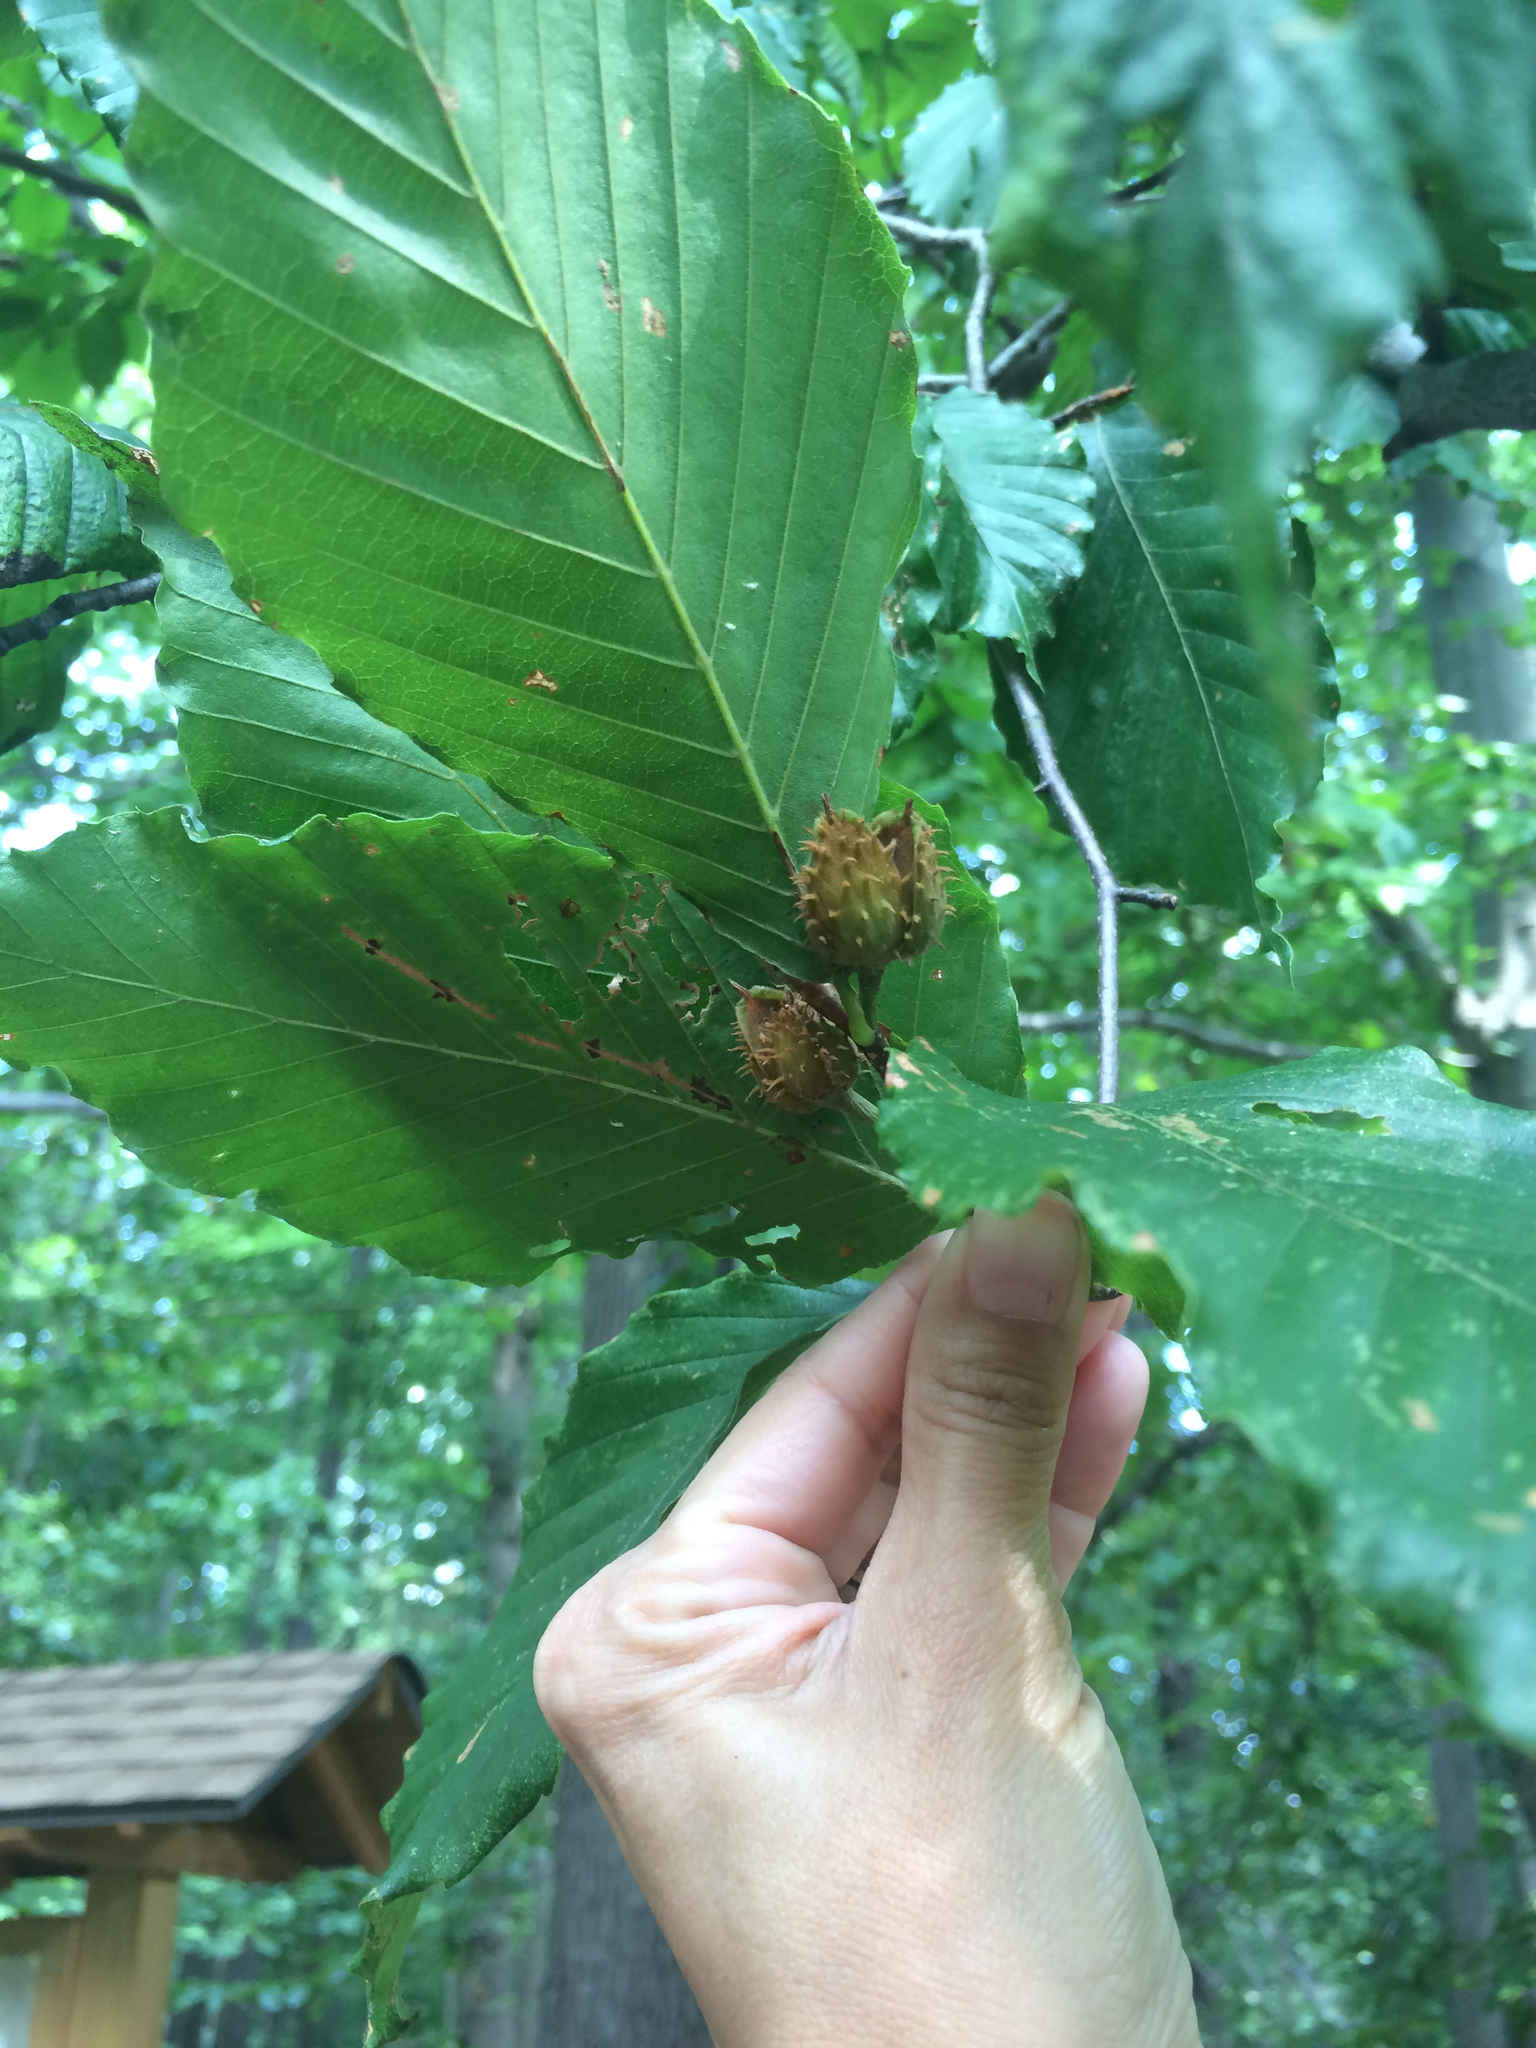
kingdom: Plantae
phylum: Tracheophyta
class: Magnoliopsida
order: Fagales
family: Fagaceae
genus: Fagus
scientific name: Fagus grandifolia
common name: American beech
